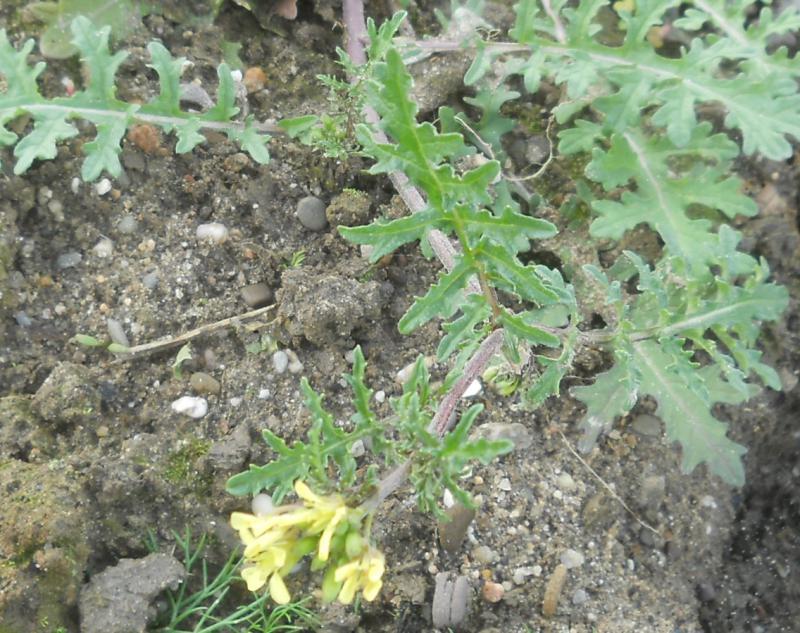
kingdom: Plantae
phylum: Tracheophyta
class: Magnoliopsida
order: Brassicales
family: Brassicaceae
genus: Erucastrum
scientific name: Erucastrum gallicum
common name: Hairy rocket
